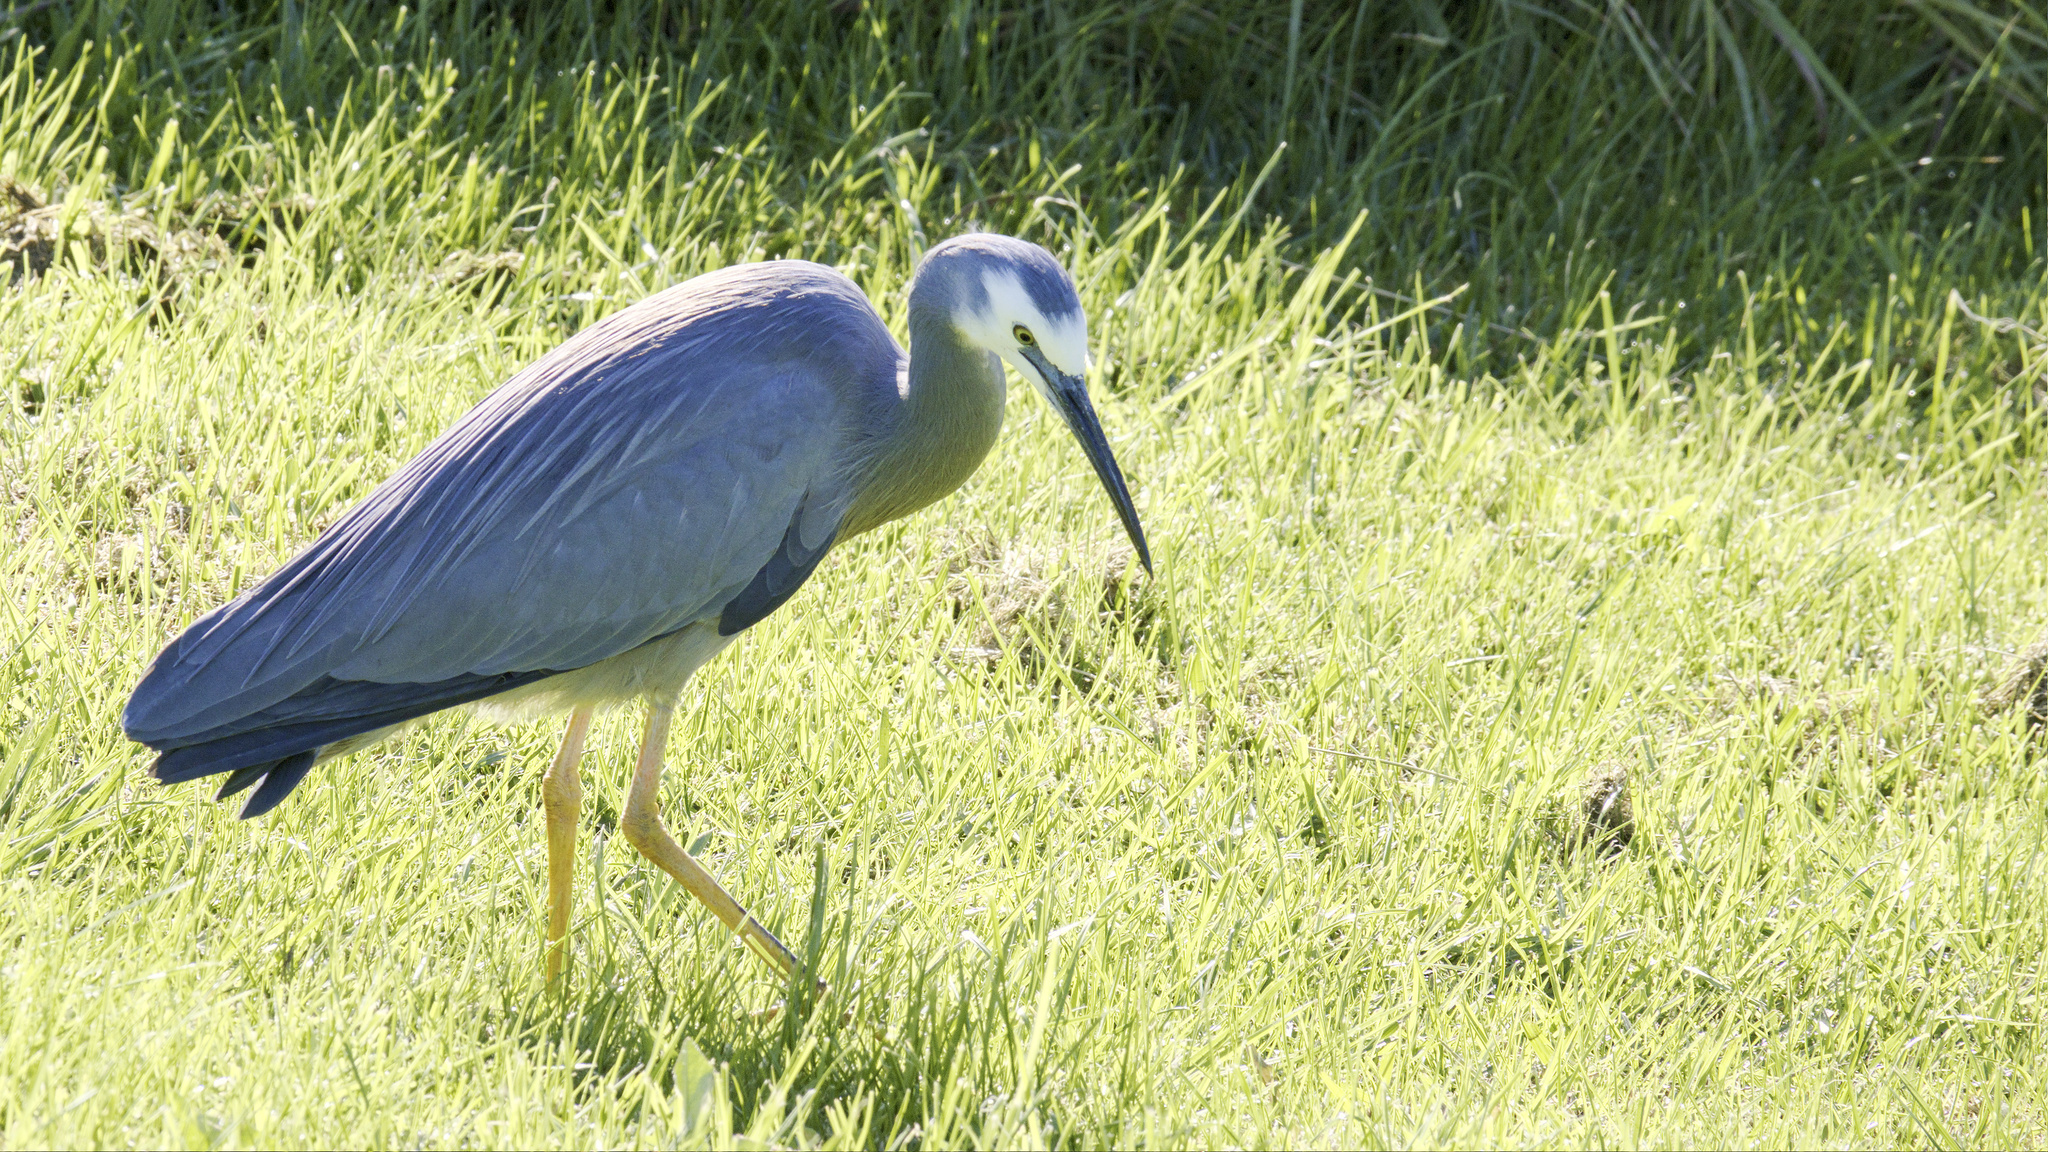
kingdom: Animalia
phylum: Chordata
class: Aves
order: Pelecaniformes
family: Ardeidae
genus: Egretta
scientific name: Egretta novaehollandiae
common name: White-faced heron
